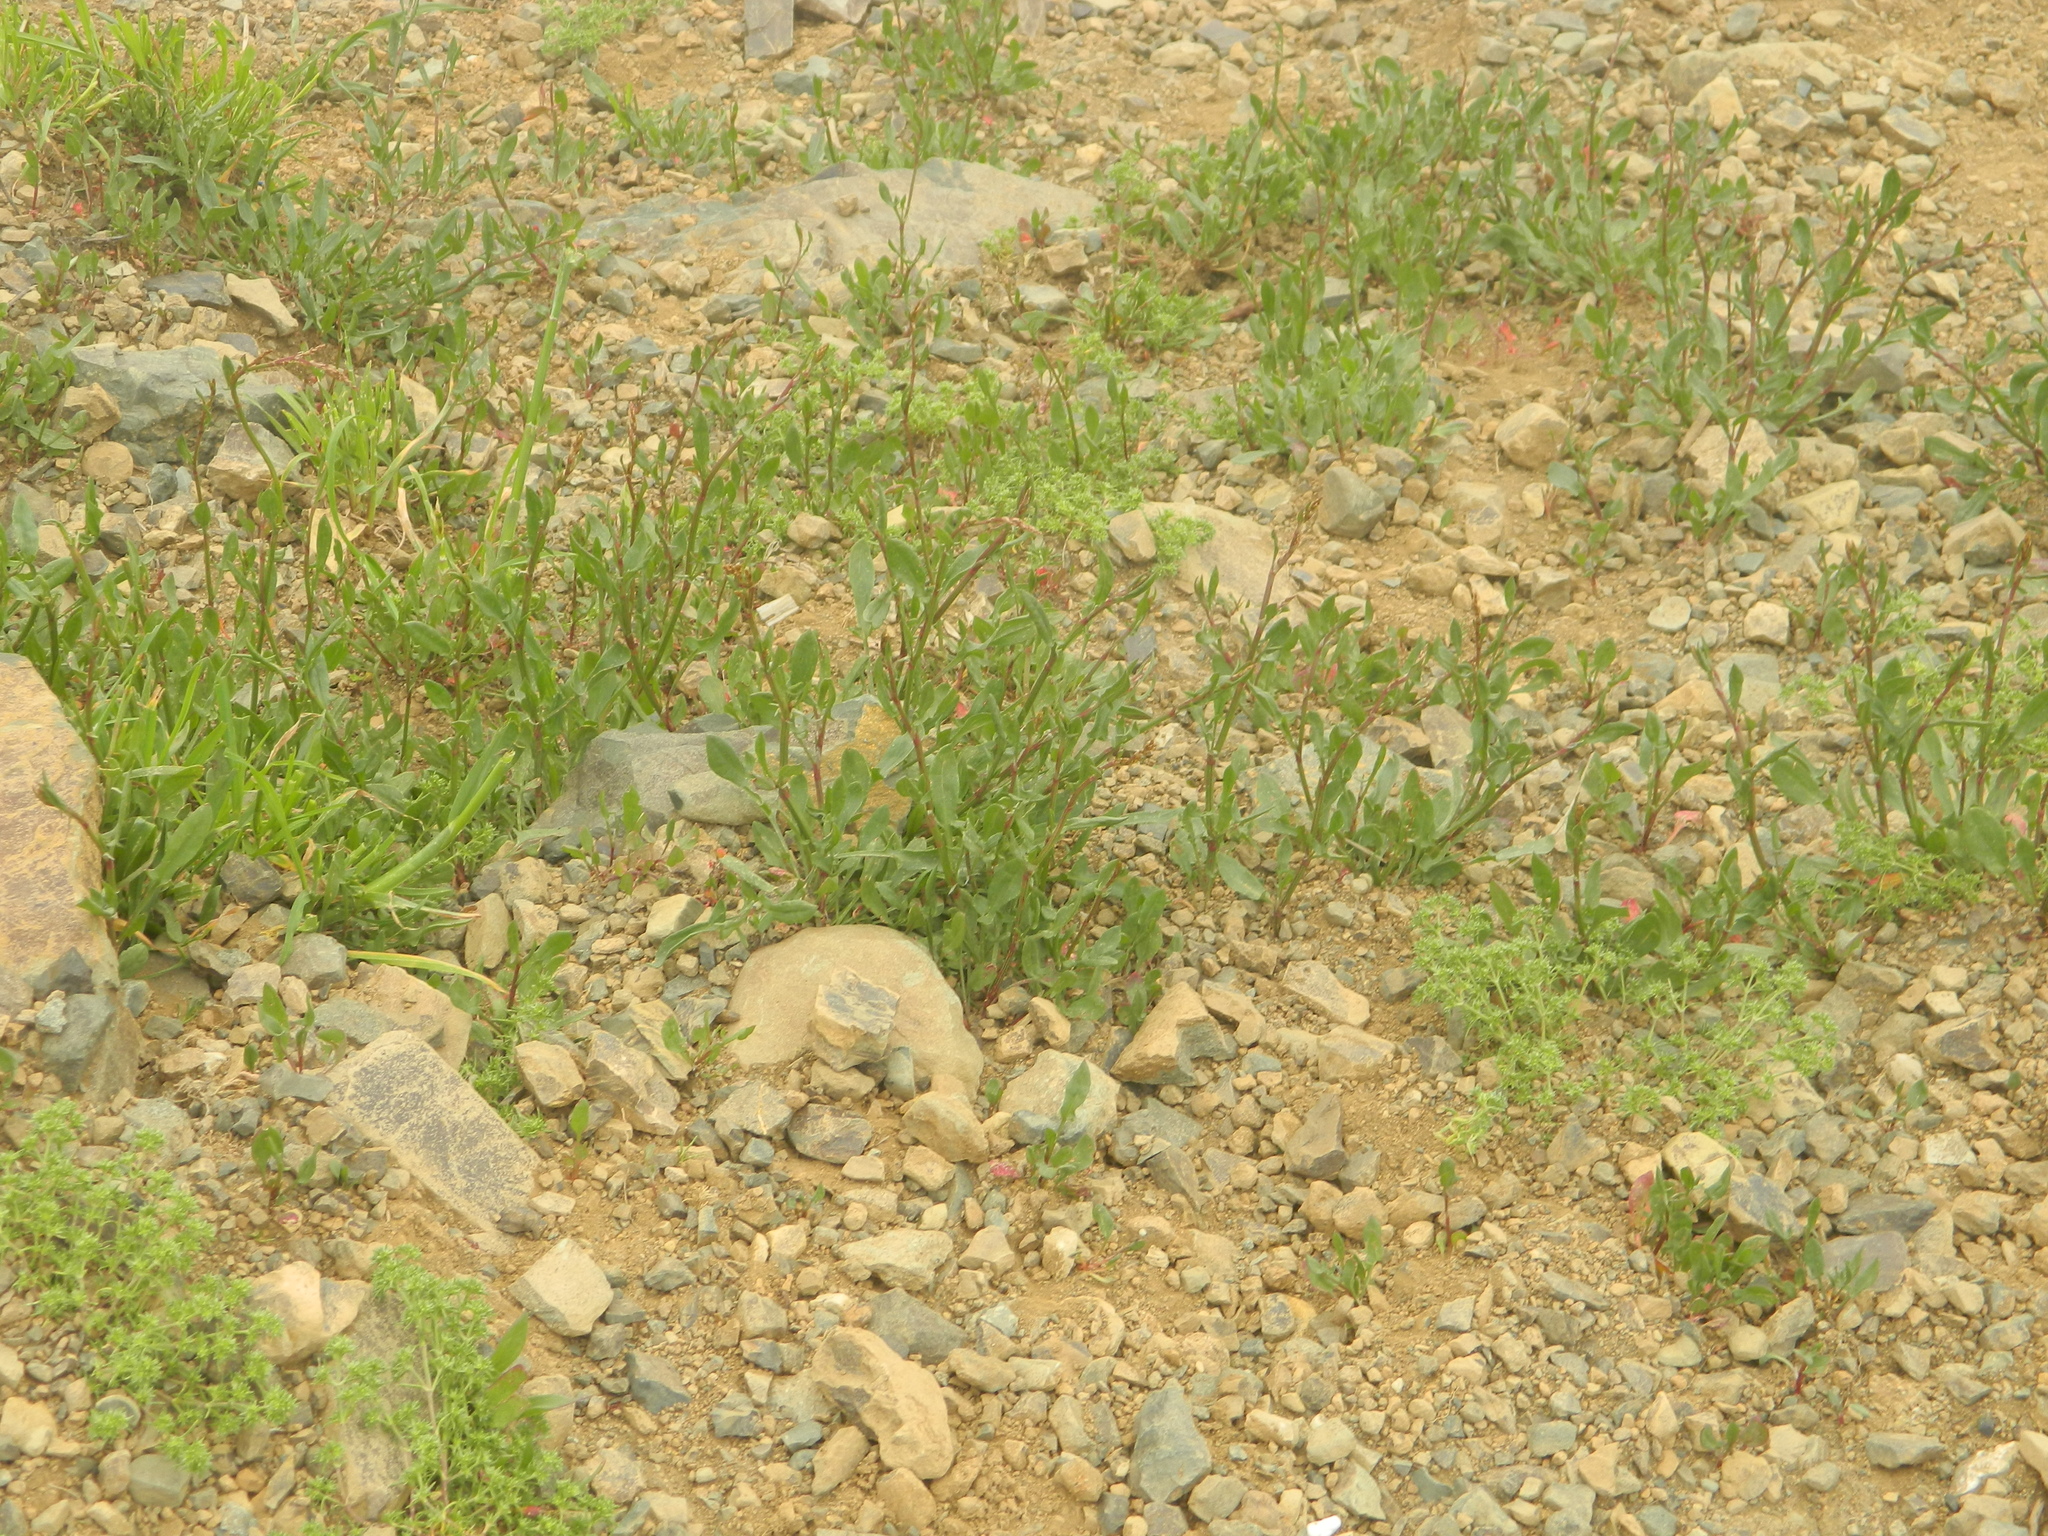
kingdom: Plantae
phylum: Tracheophyta
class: Magnoliopsida
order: Caryophyllales
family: Polygonaceae
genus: Rumex
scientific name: Rumex acetosella
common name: Common sheep sorrel
